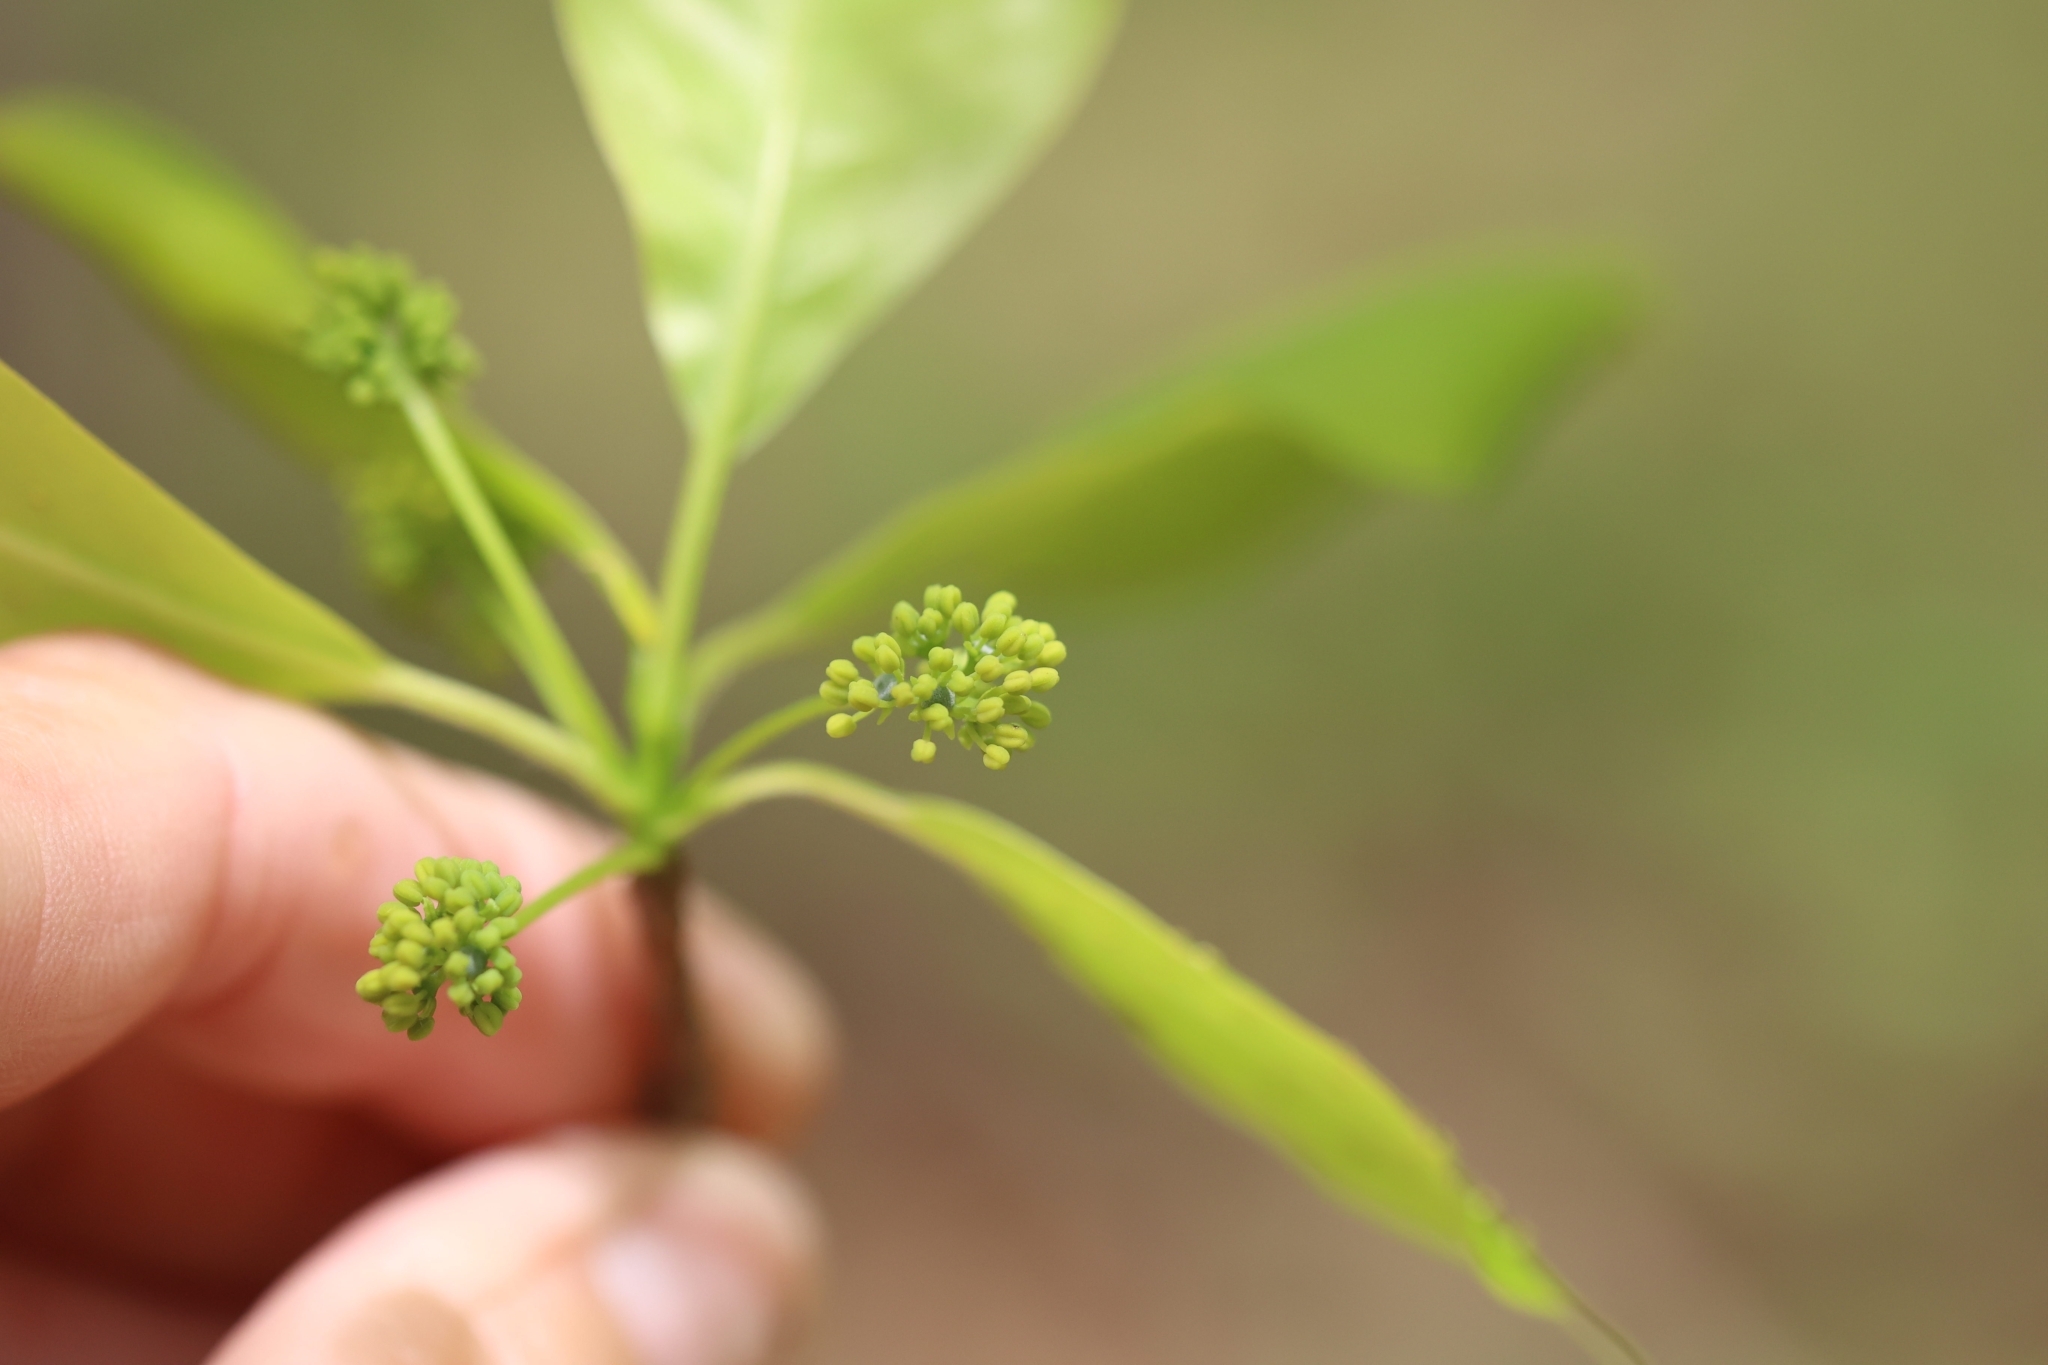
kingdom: Plantae
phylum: Tracheophyta
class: Magnoliopsida
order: Cornales
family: Nyssaceae
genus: Nyssa
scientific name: Nyssa sylvatica
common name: Black tupelo
